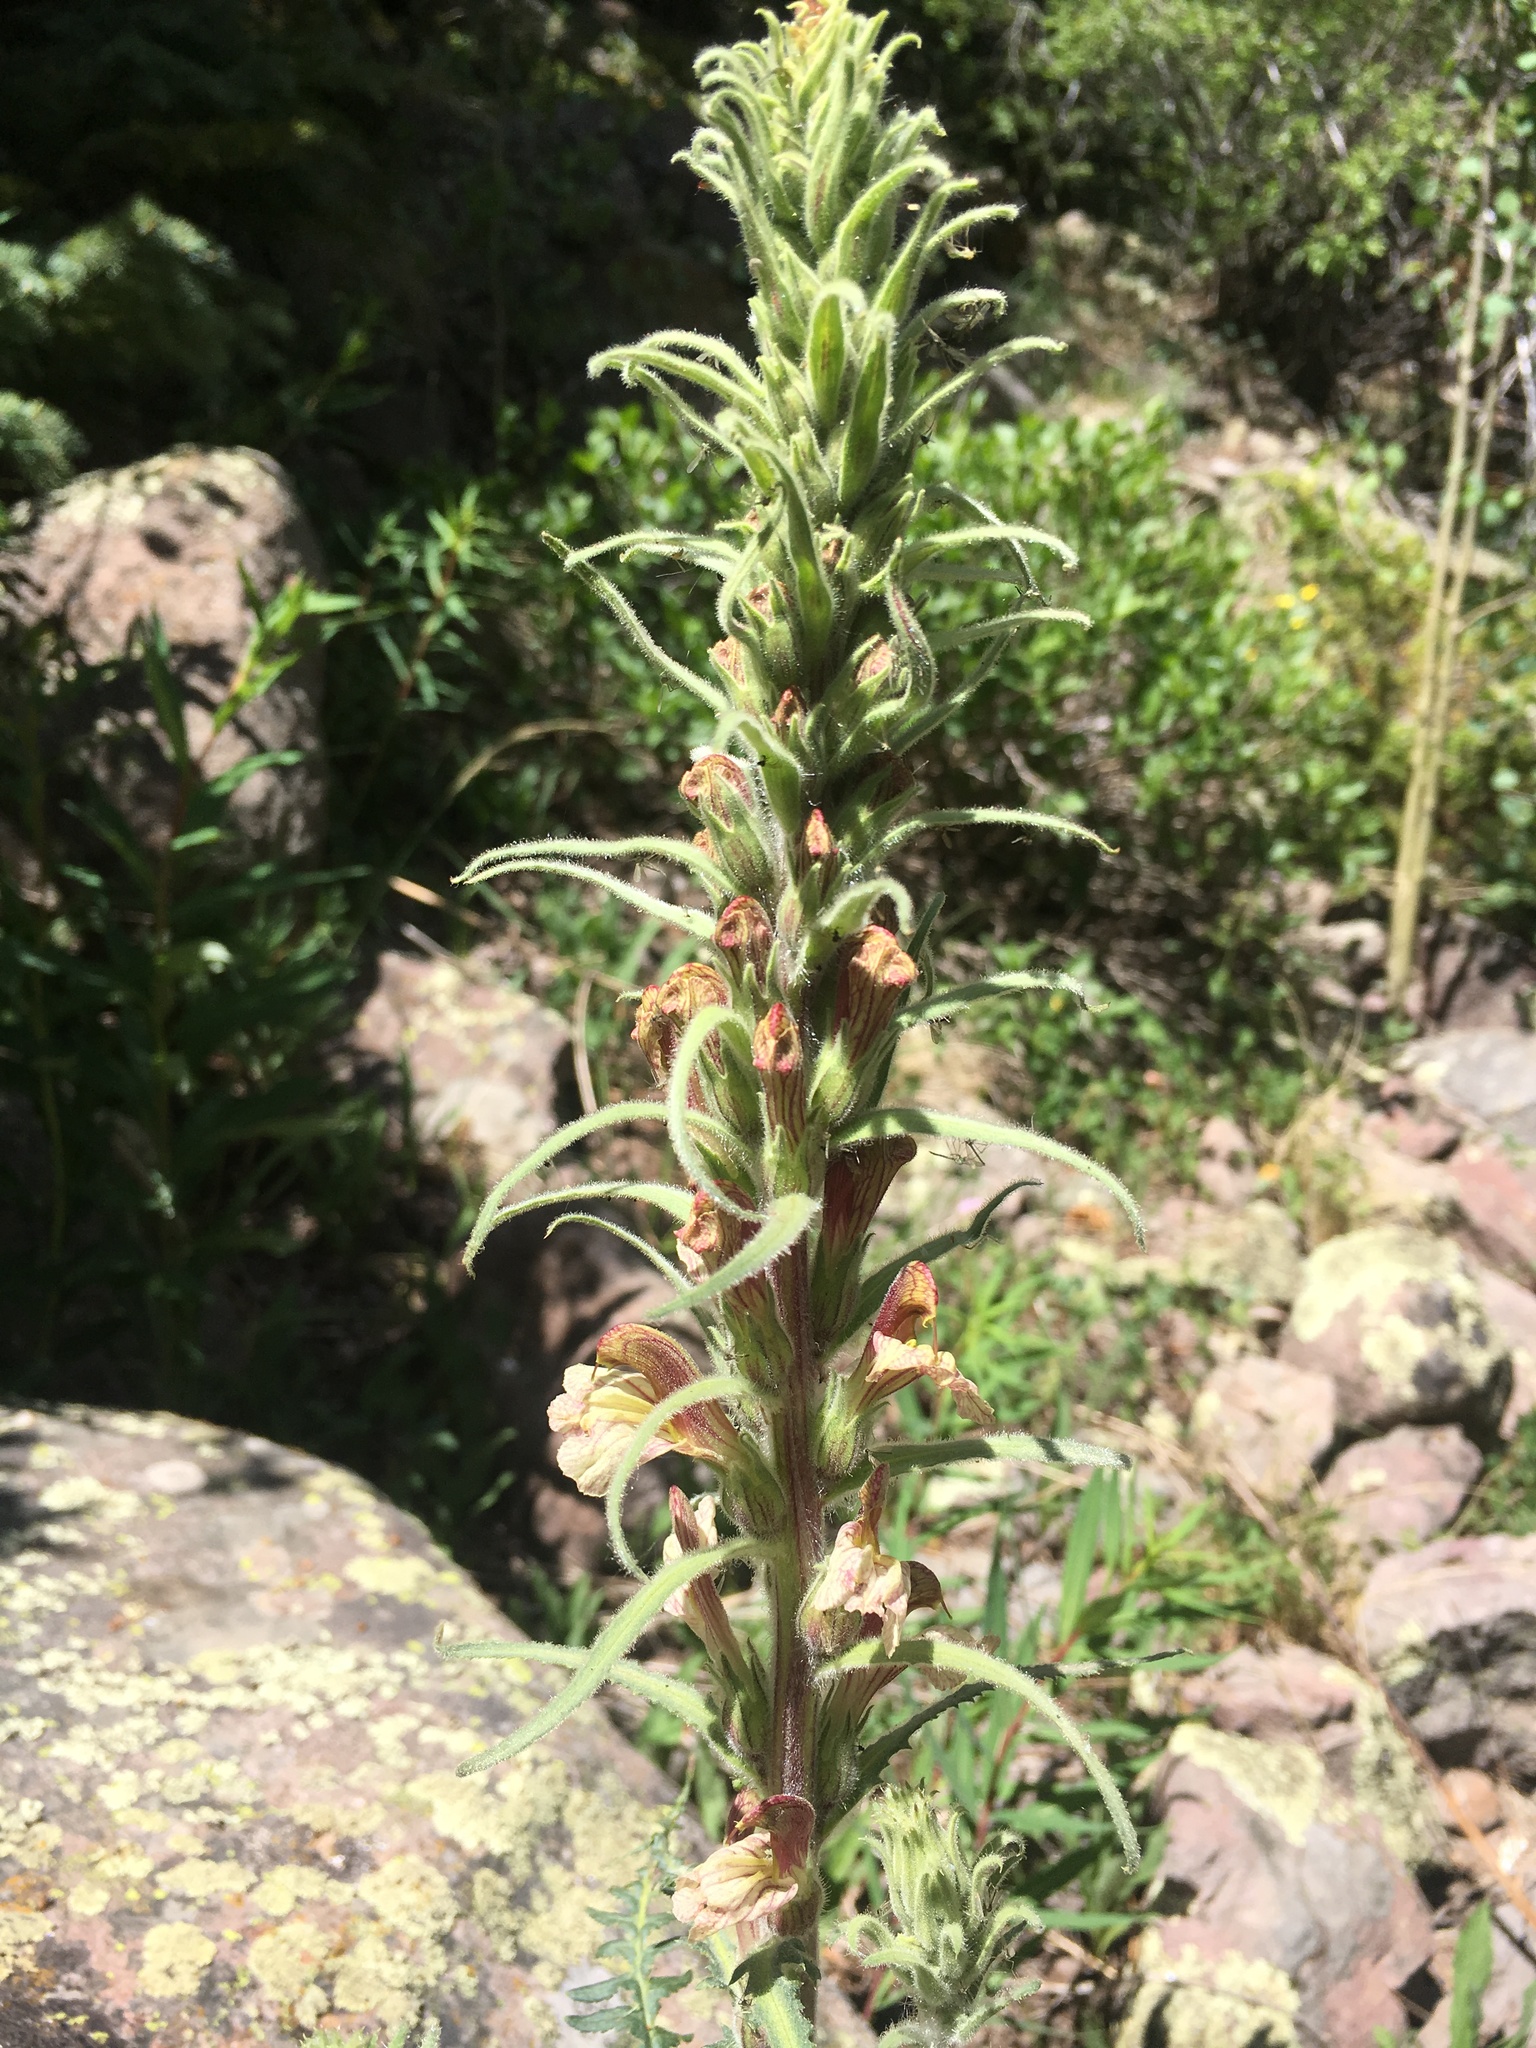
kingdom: Plantae
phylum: Tracheophyta
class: Magnoliopsida
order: Lamiales
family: Orobanchaceae
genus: Pedicularis
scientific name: Pedicularis procera
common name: Gray's lousewort
